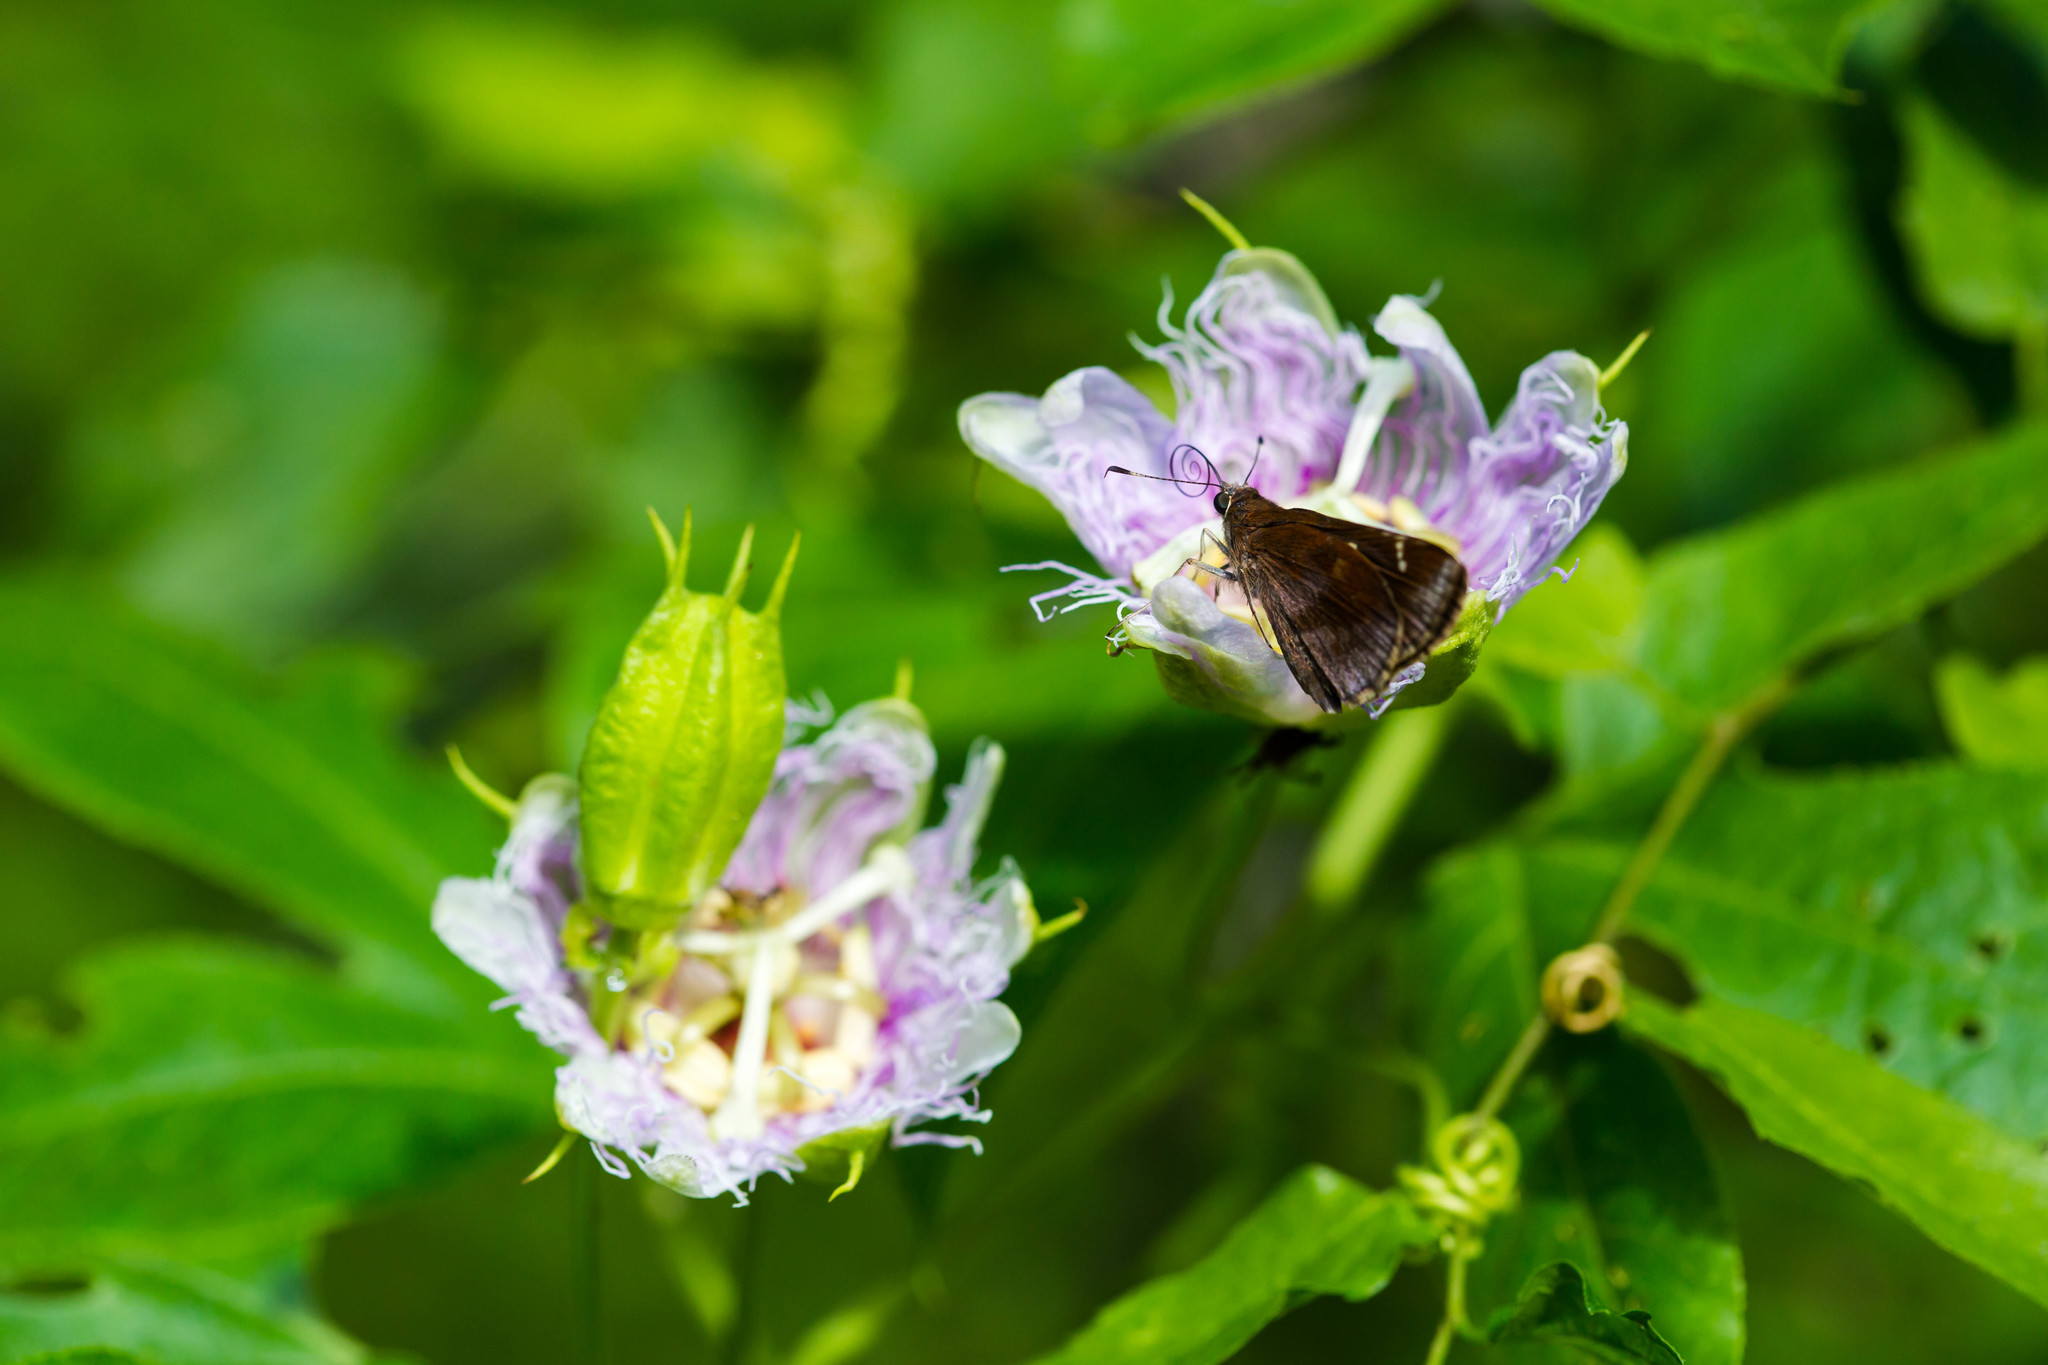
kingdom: Animalia
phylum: Arthropoda
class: Insecta
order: Lepidoptera
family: Hesperiidae
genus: Lerema
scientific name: Lerema accius
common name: Clouded skipper
